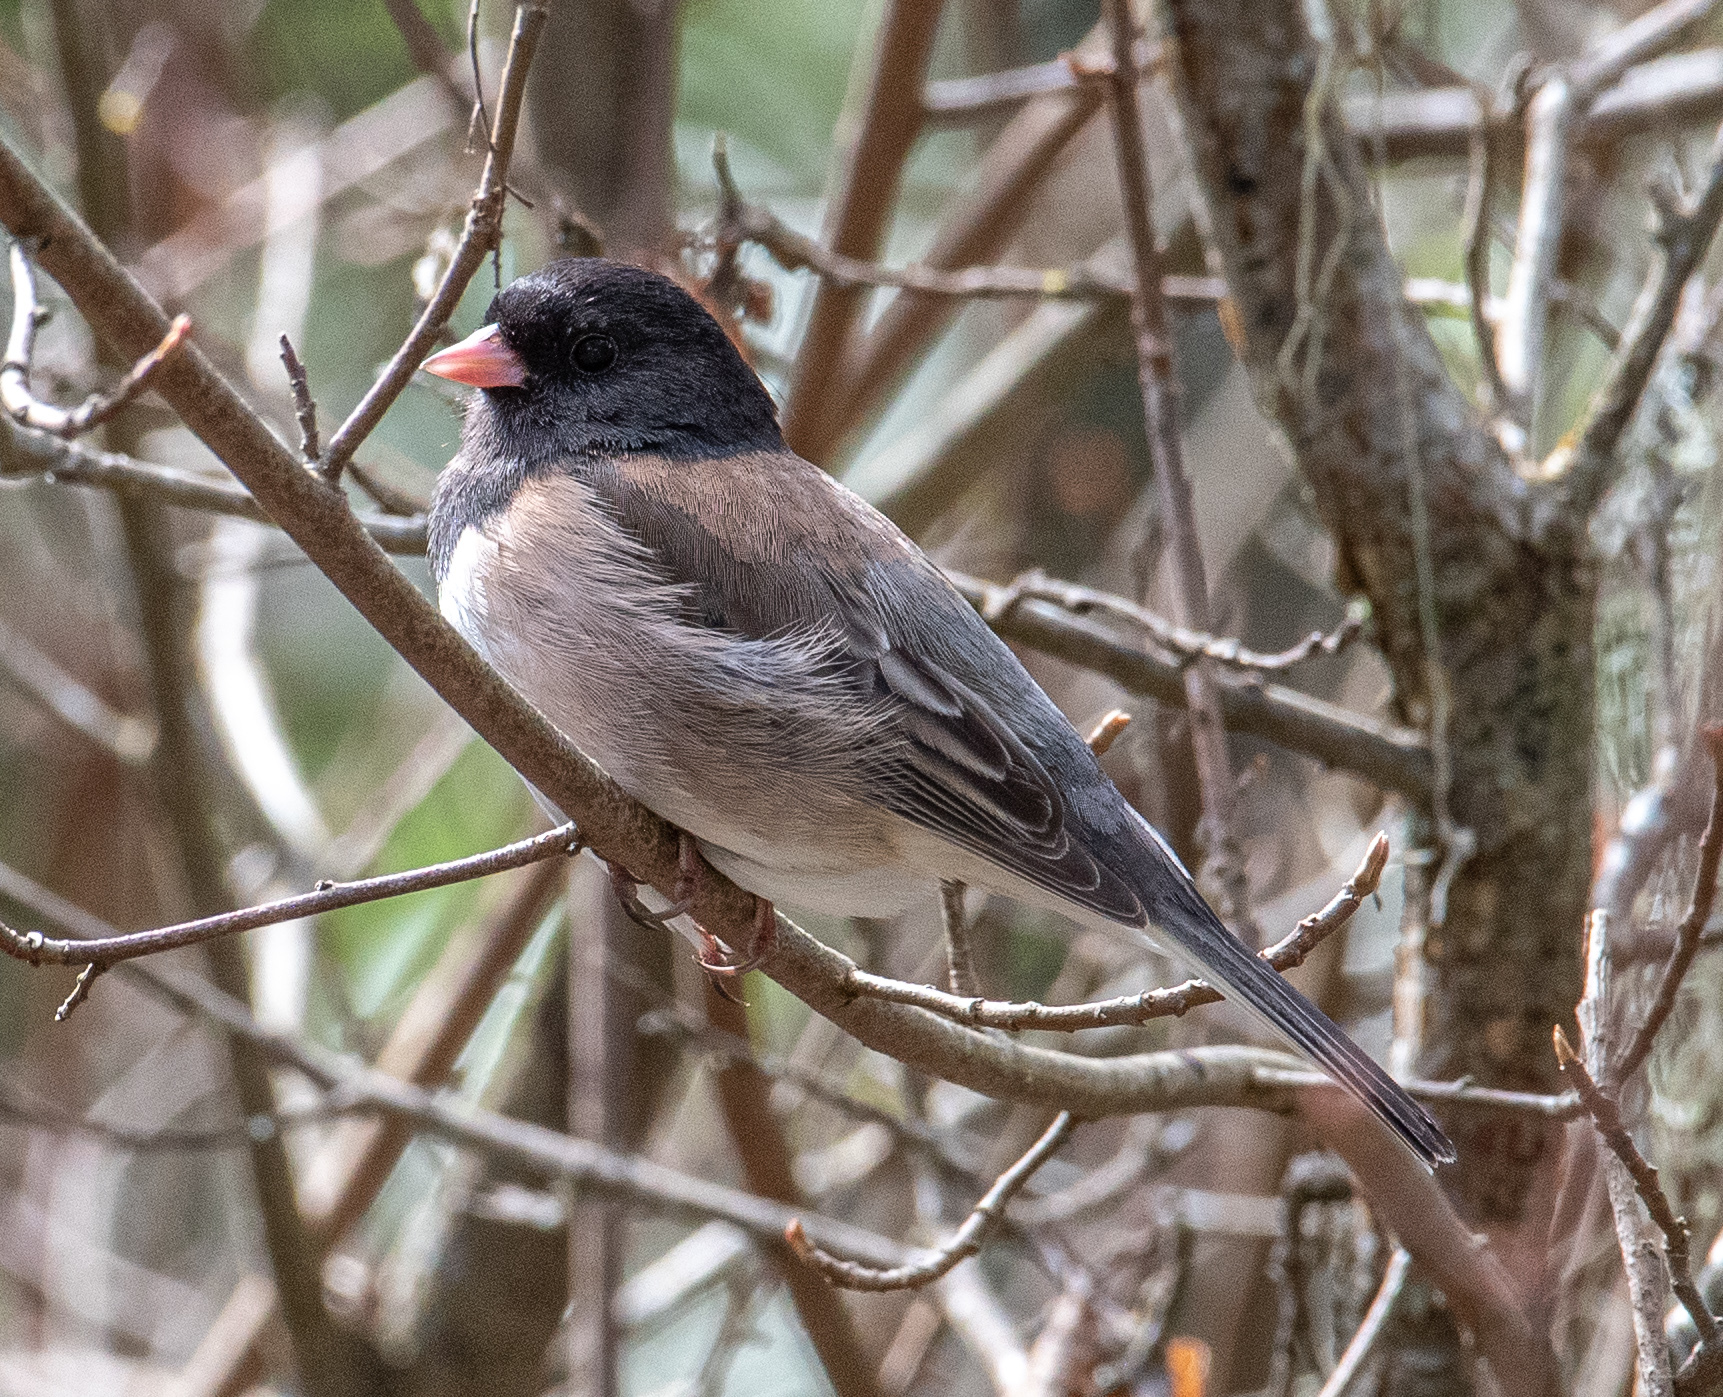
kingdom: Animalia
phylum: Chordata
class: Aves
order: Passeriformes
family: Passerellidae
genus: Junco
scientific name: Junco hyemalis
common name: Dark-eyed junco
